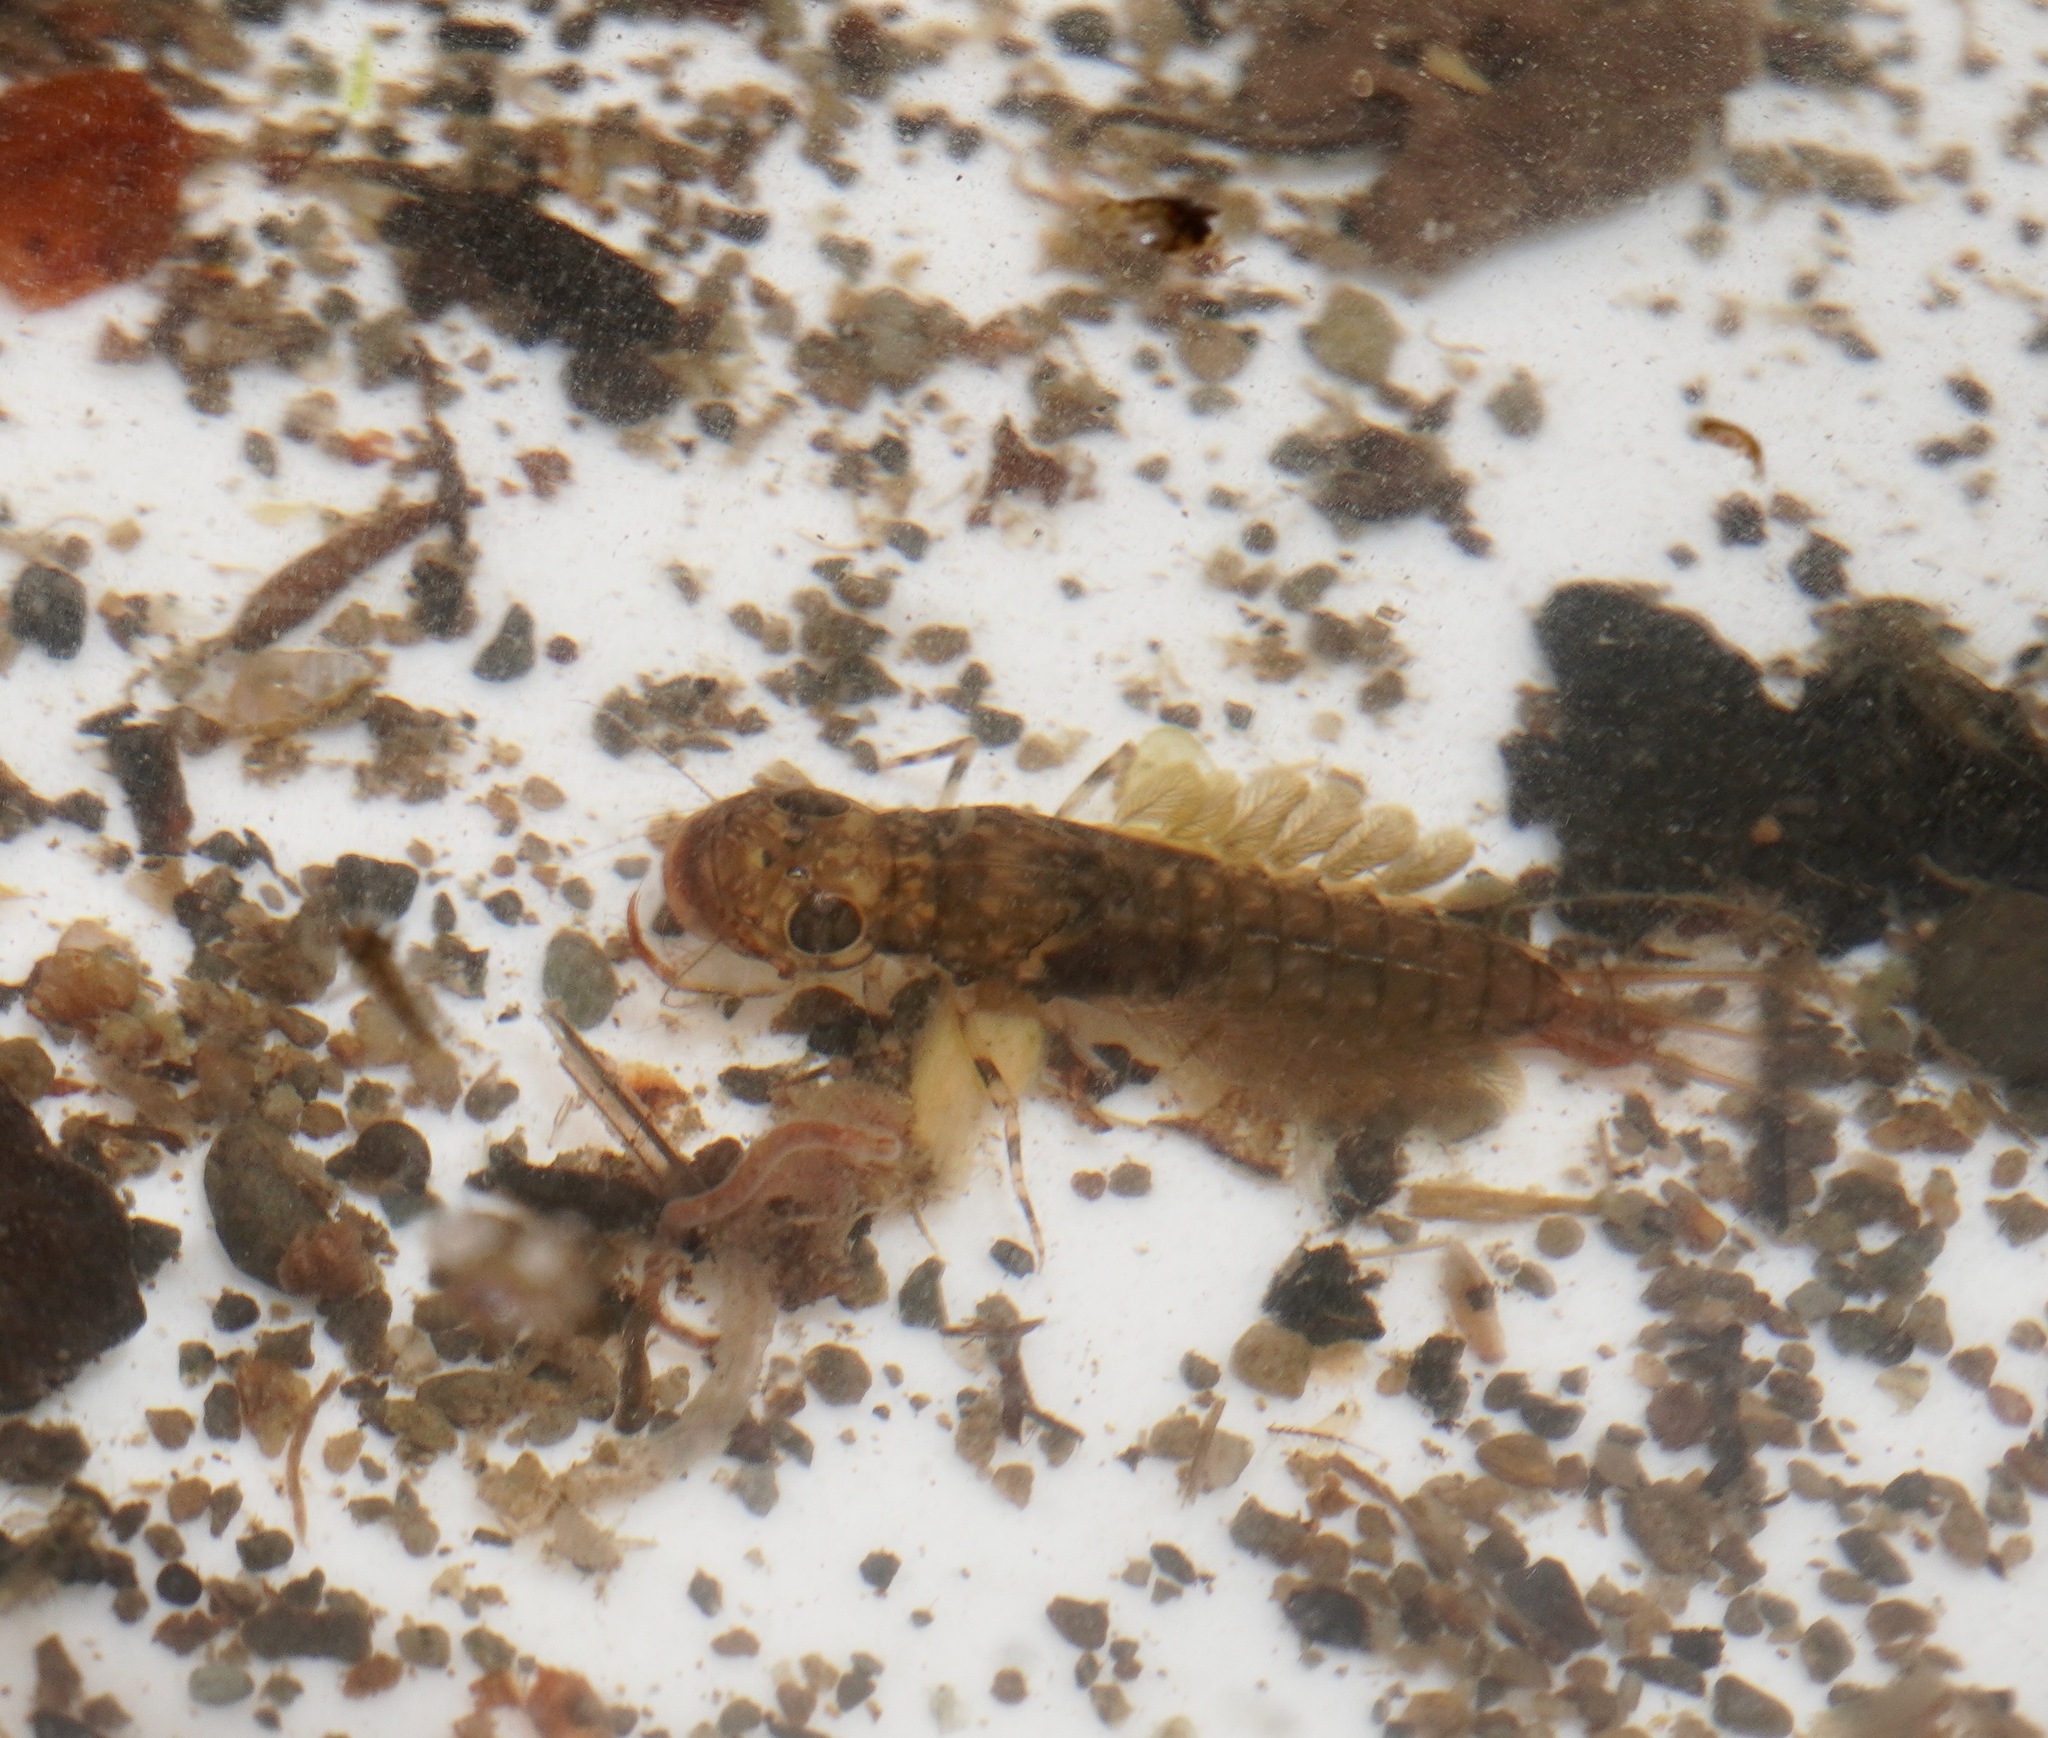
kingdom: Animalia
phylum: Arthropoda
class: Insecta
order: Ephemeroptera
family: Ameletopsidae
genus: Ameletopsis
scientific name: Ameletopsis perscitus
